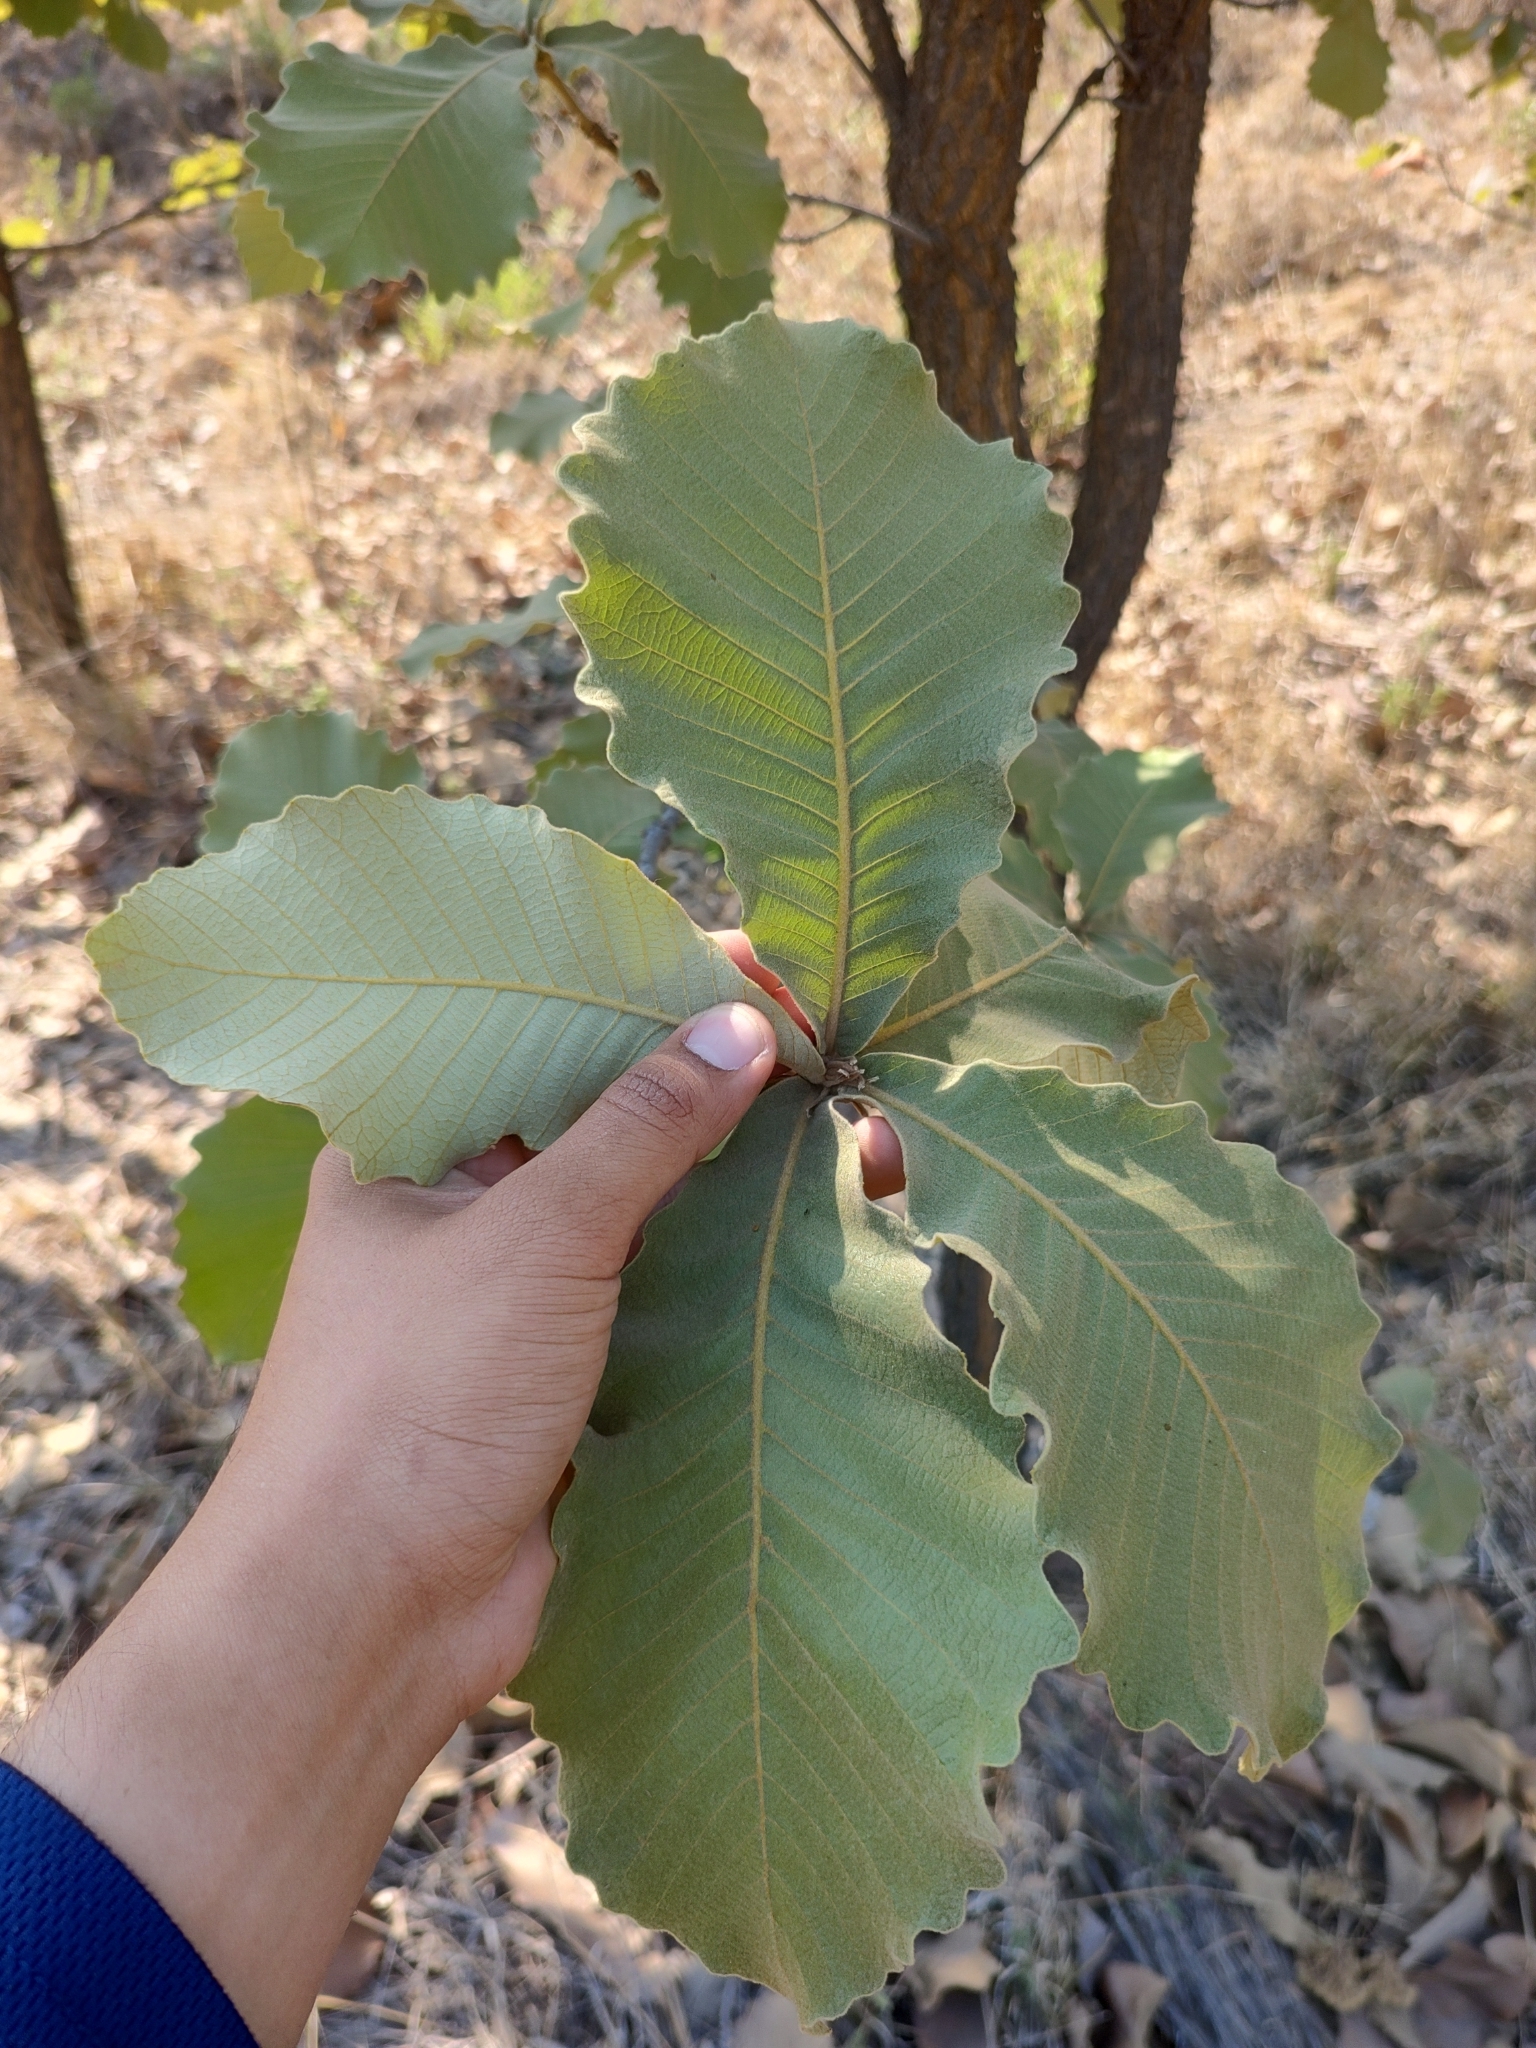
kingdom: Plantae
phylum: Tracheophyta
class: Magnoliopsida
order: Fagales
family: Fagaceae
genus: Quercus
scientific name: Quercus resinosa
